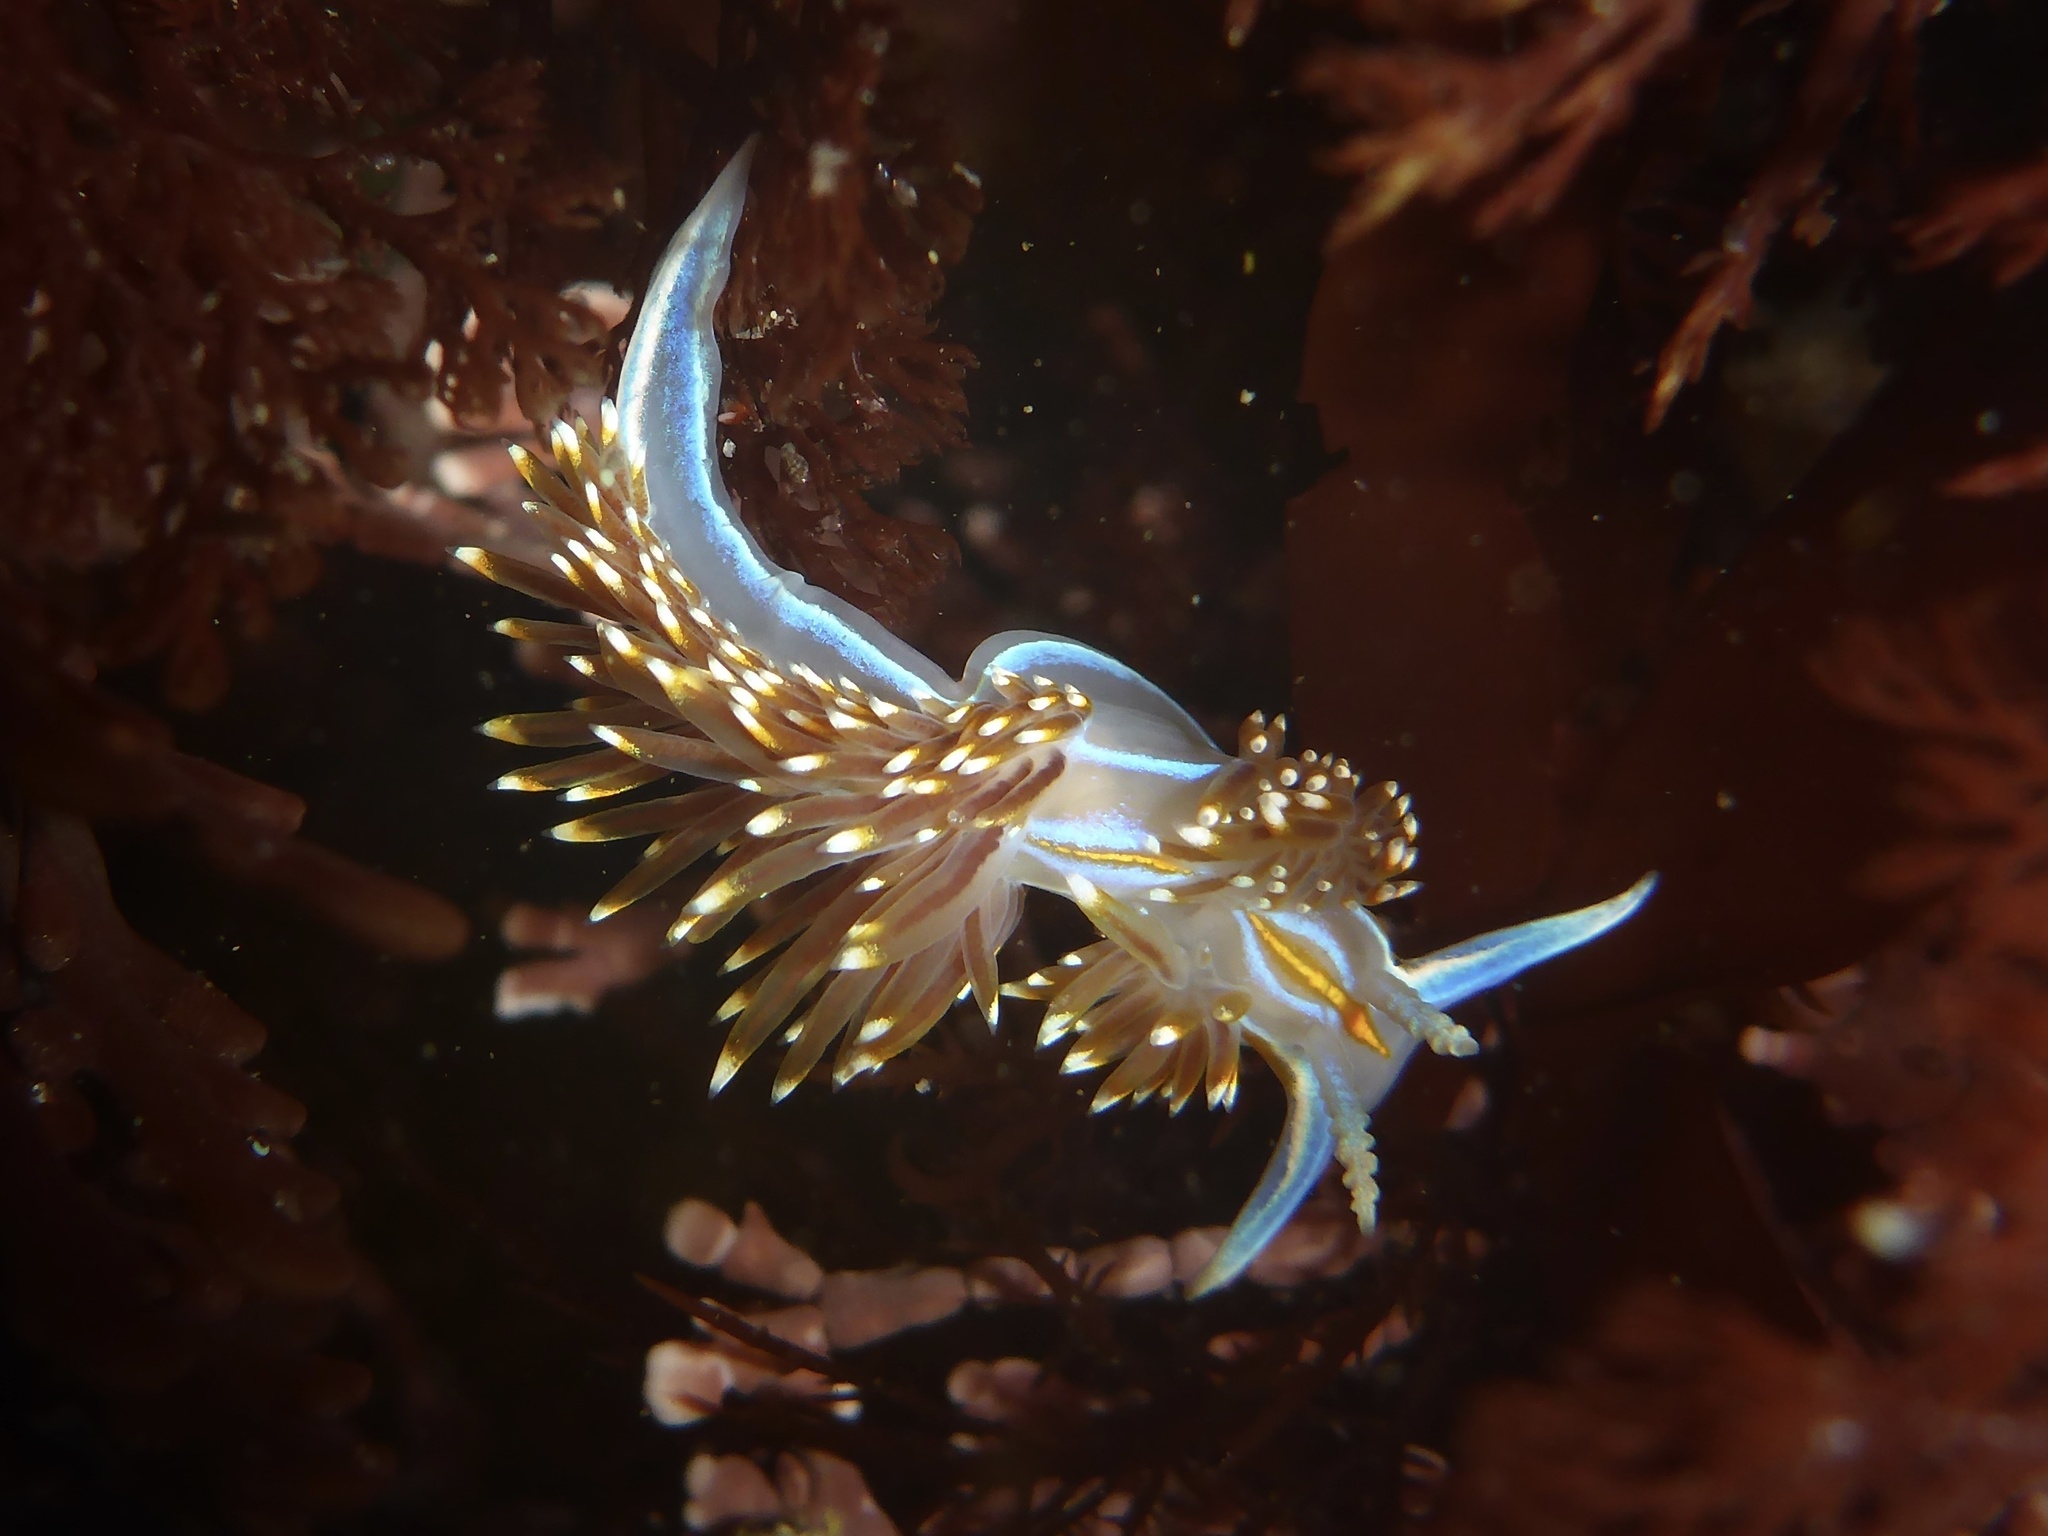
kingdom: Animalia
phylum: Mollusca
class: Gastropoda
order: Nudibranchia
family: Myrrhinidae
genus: Hermissenda
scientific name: Hermissenda opalescens
